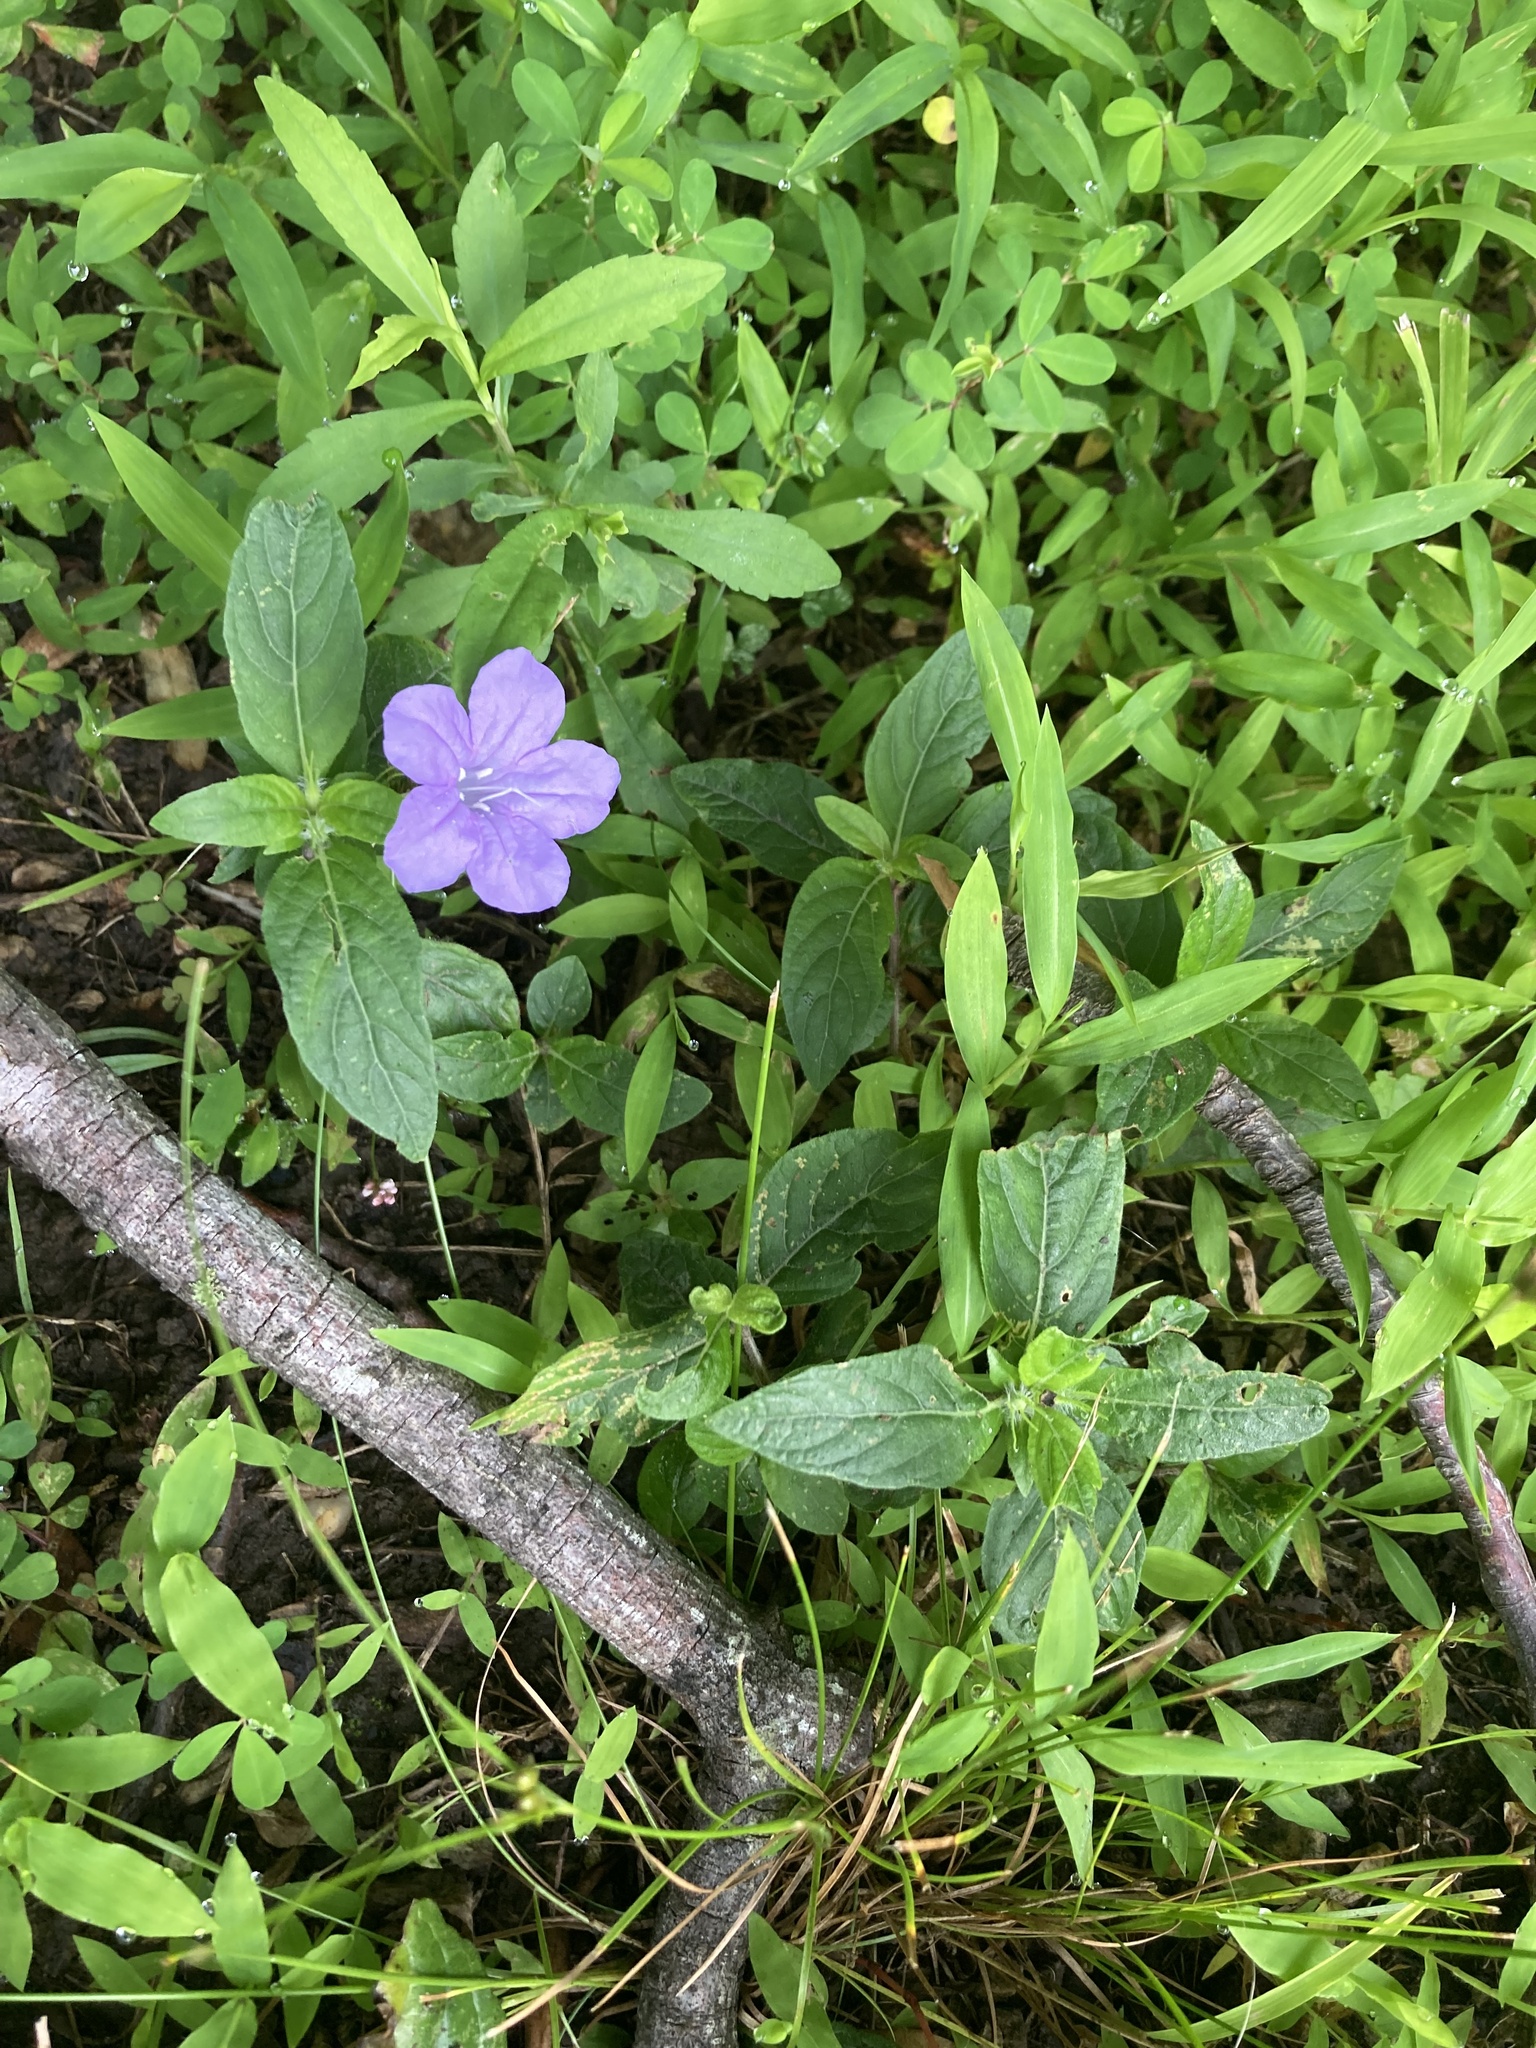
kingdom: Plantae
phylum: Tracheophyta
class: Magnoliopsida
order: Lamiales
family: Acanthaceae
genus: Ruellia
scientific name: Ruellia caroliniensis
